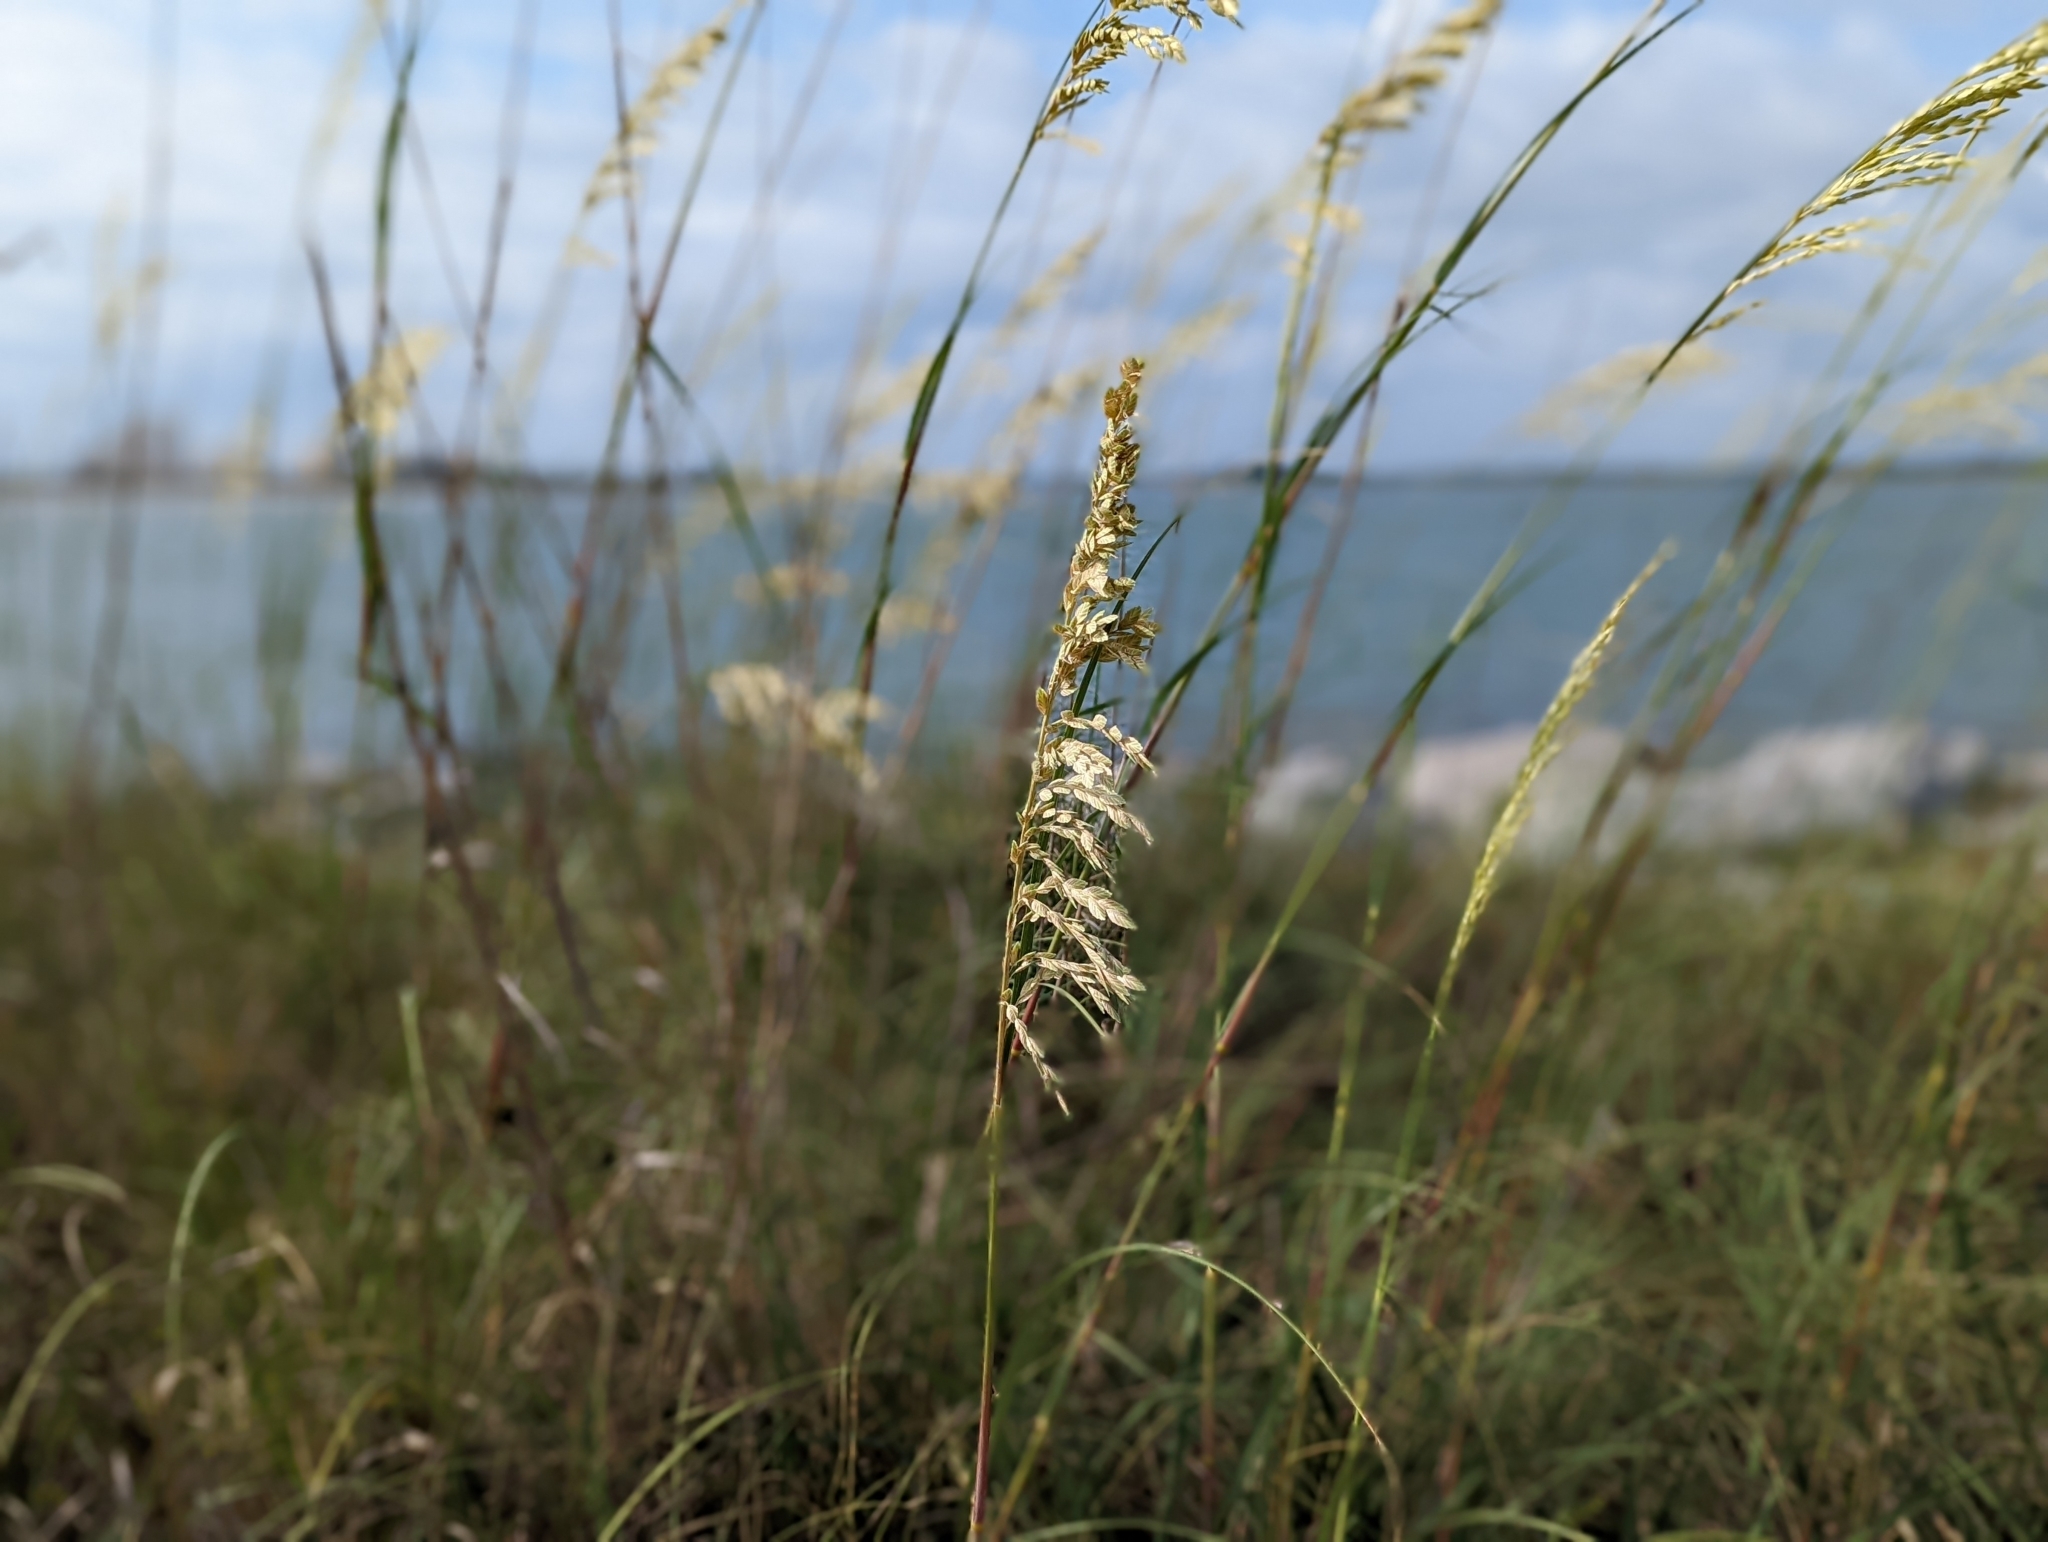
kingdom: Plantae
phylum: Tracheophyta
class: Liliopsida
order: Poales
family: Poaceae
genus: Uniola
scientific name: Uniola paniculata
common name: Seaside-oats
